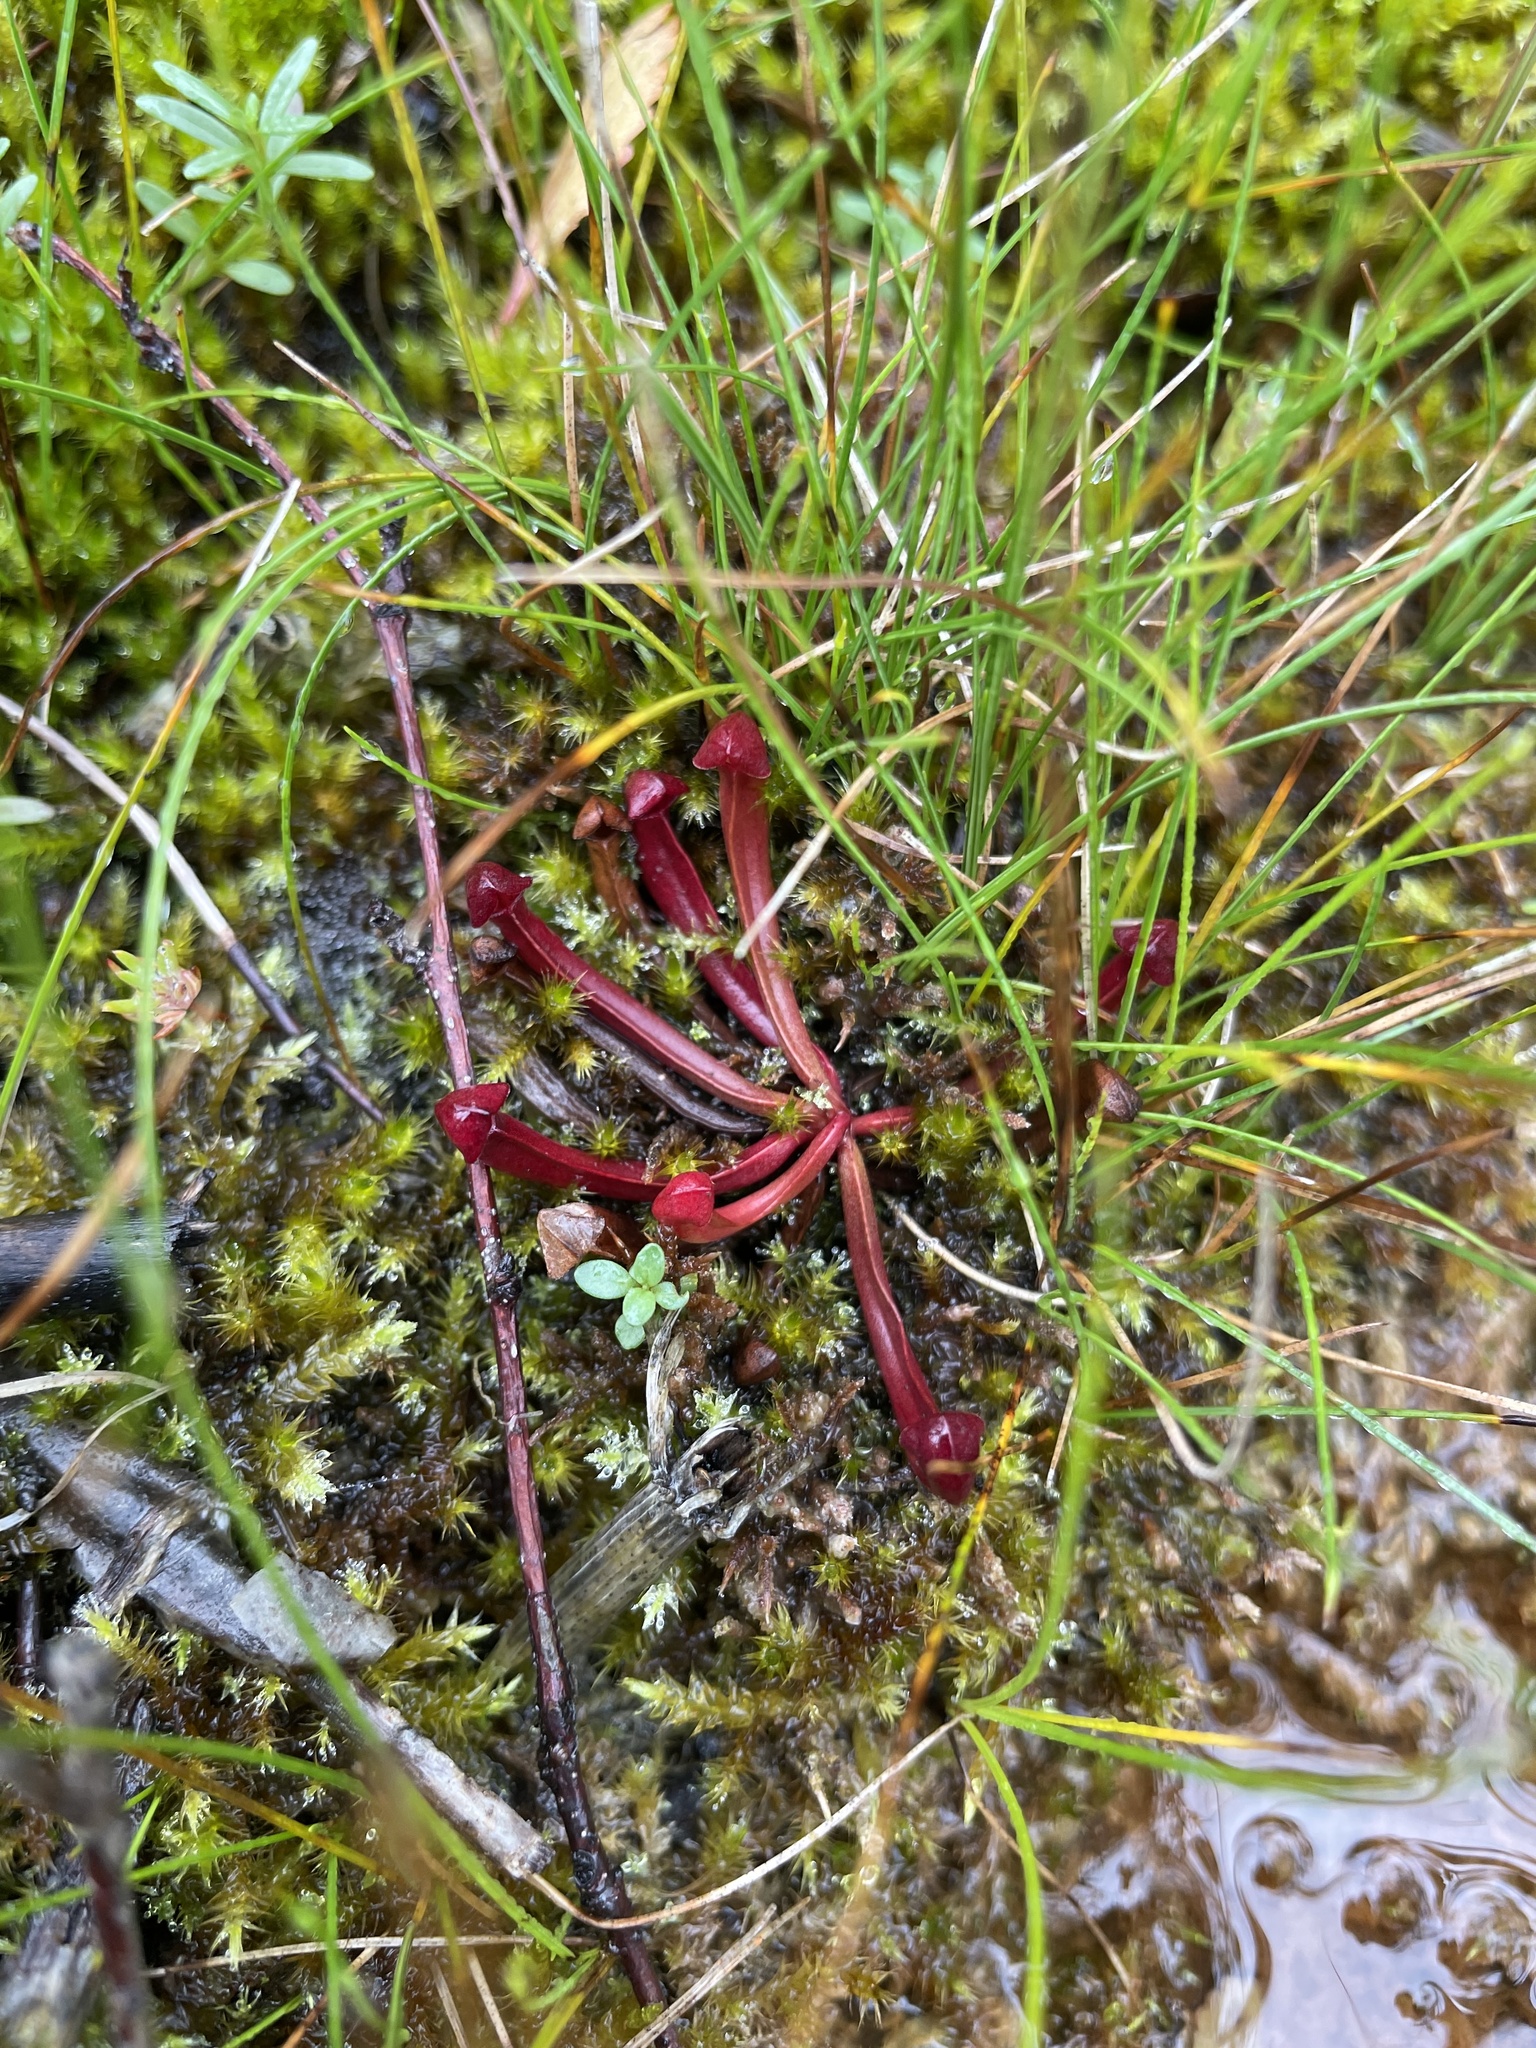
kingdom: Plantae
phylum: Tracheophyta
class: Magnoliopsida
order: Ericales
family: Sarraceniaceae
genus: Sarracenia
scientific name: Sarracenia purpurea
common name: Pitcherplant
